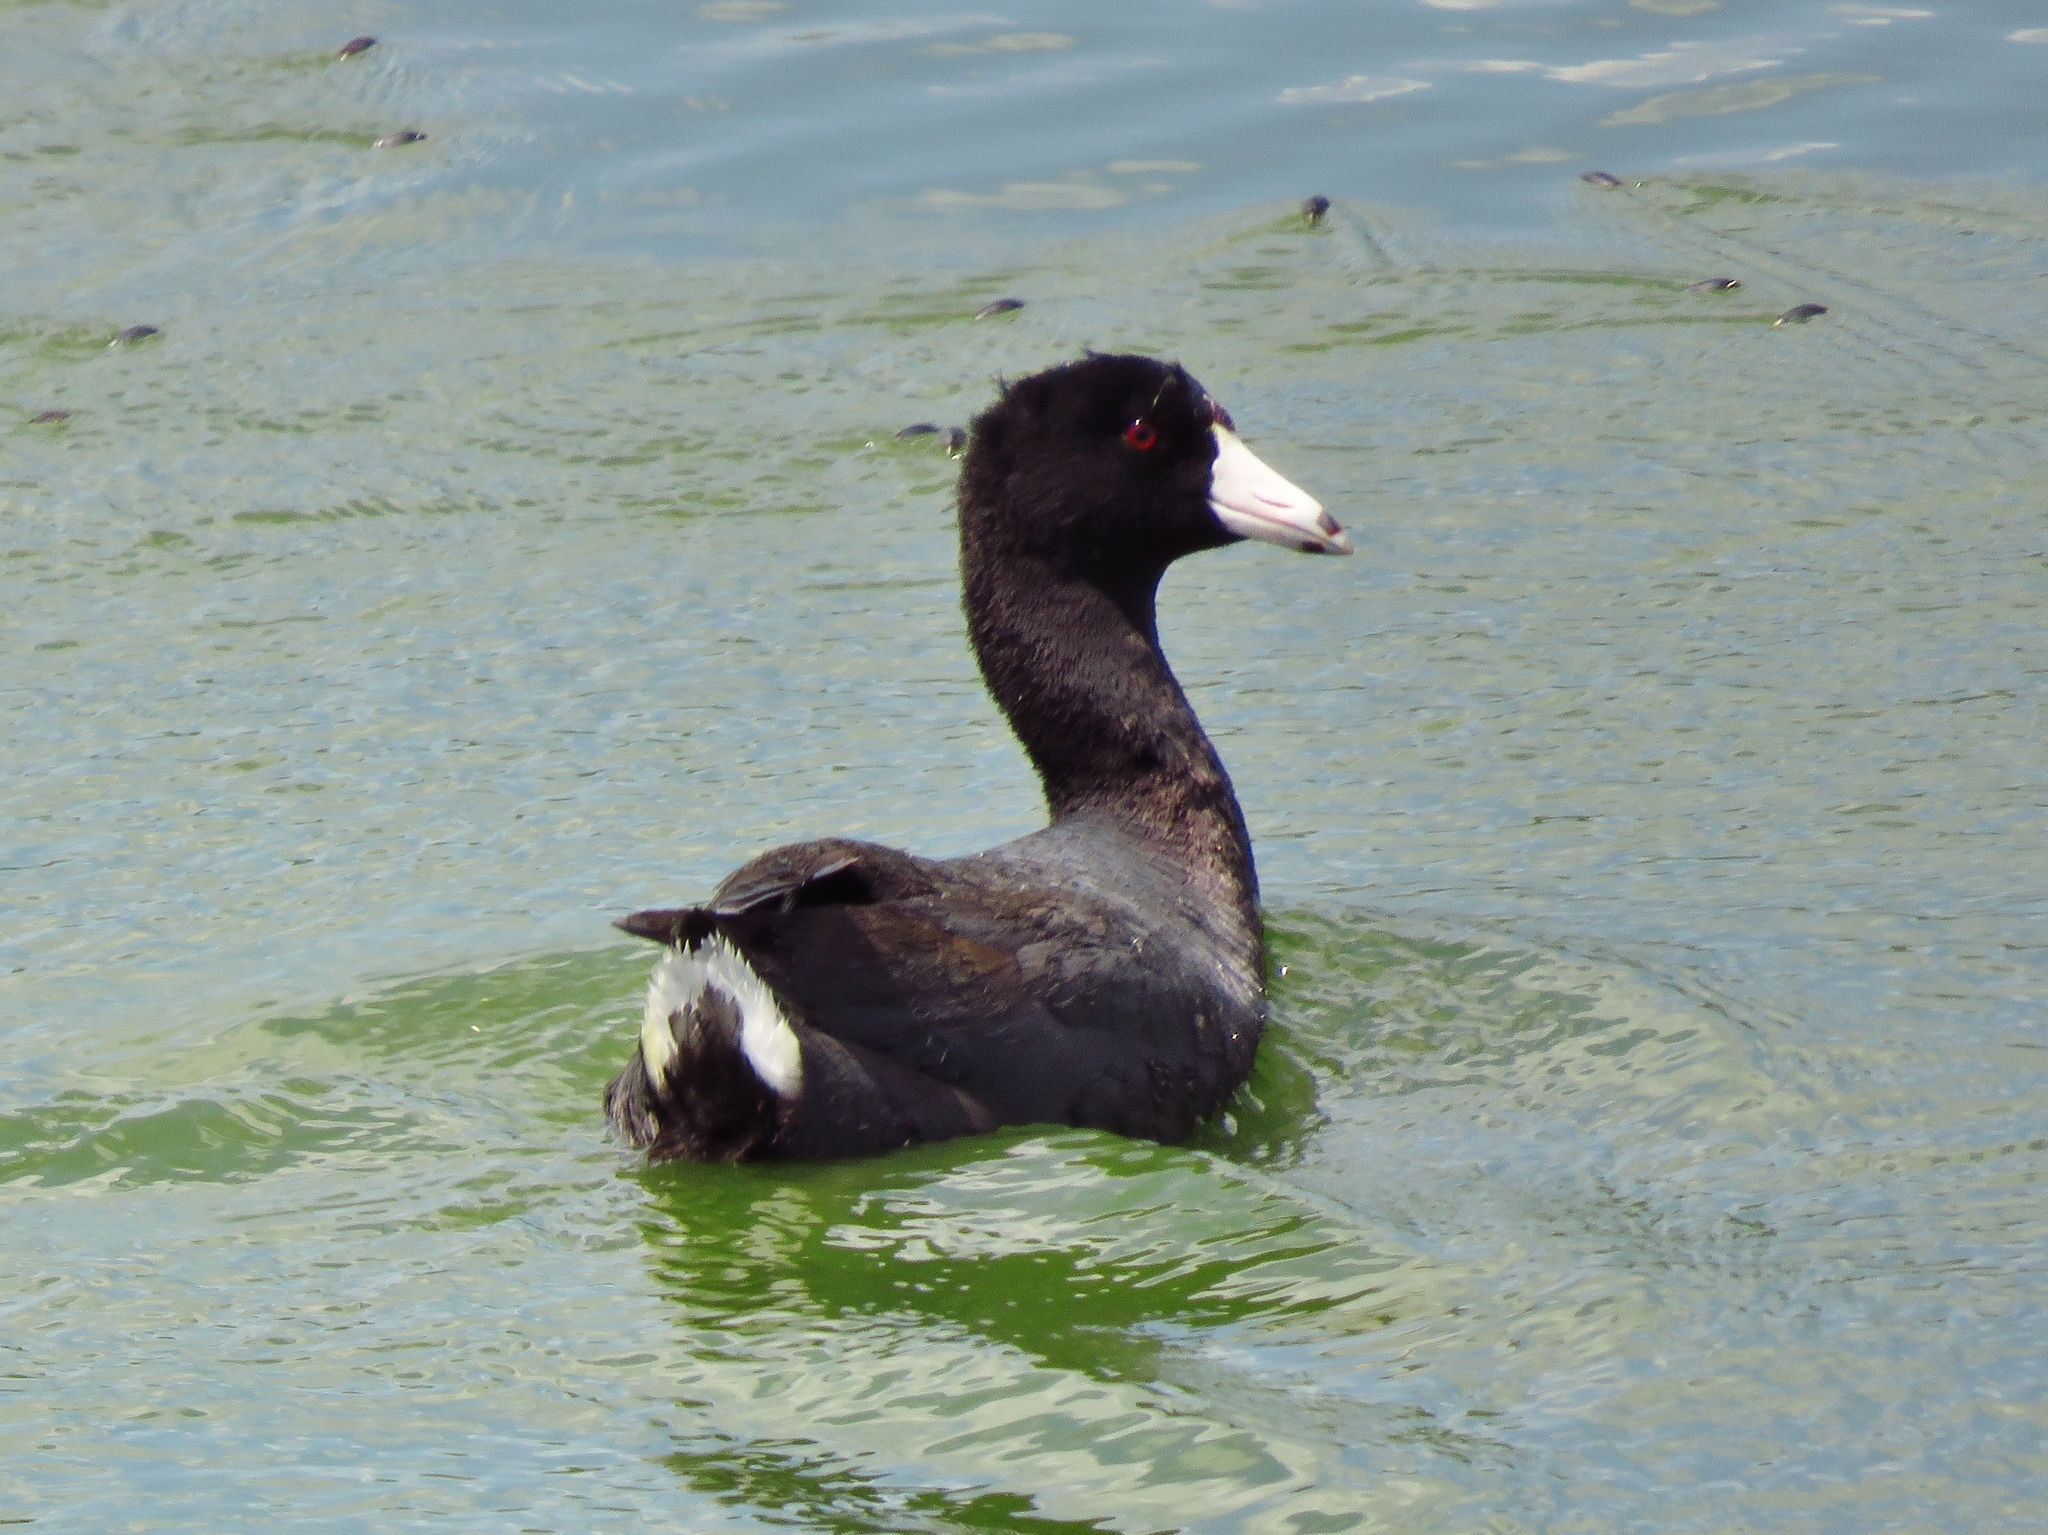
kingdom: Animalia
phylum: Chordata
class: Aves
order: Gruiformes
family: Rallidae
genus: Fulica
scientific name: Fulica americana
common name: American coot
